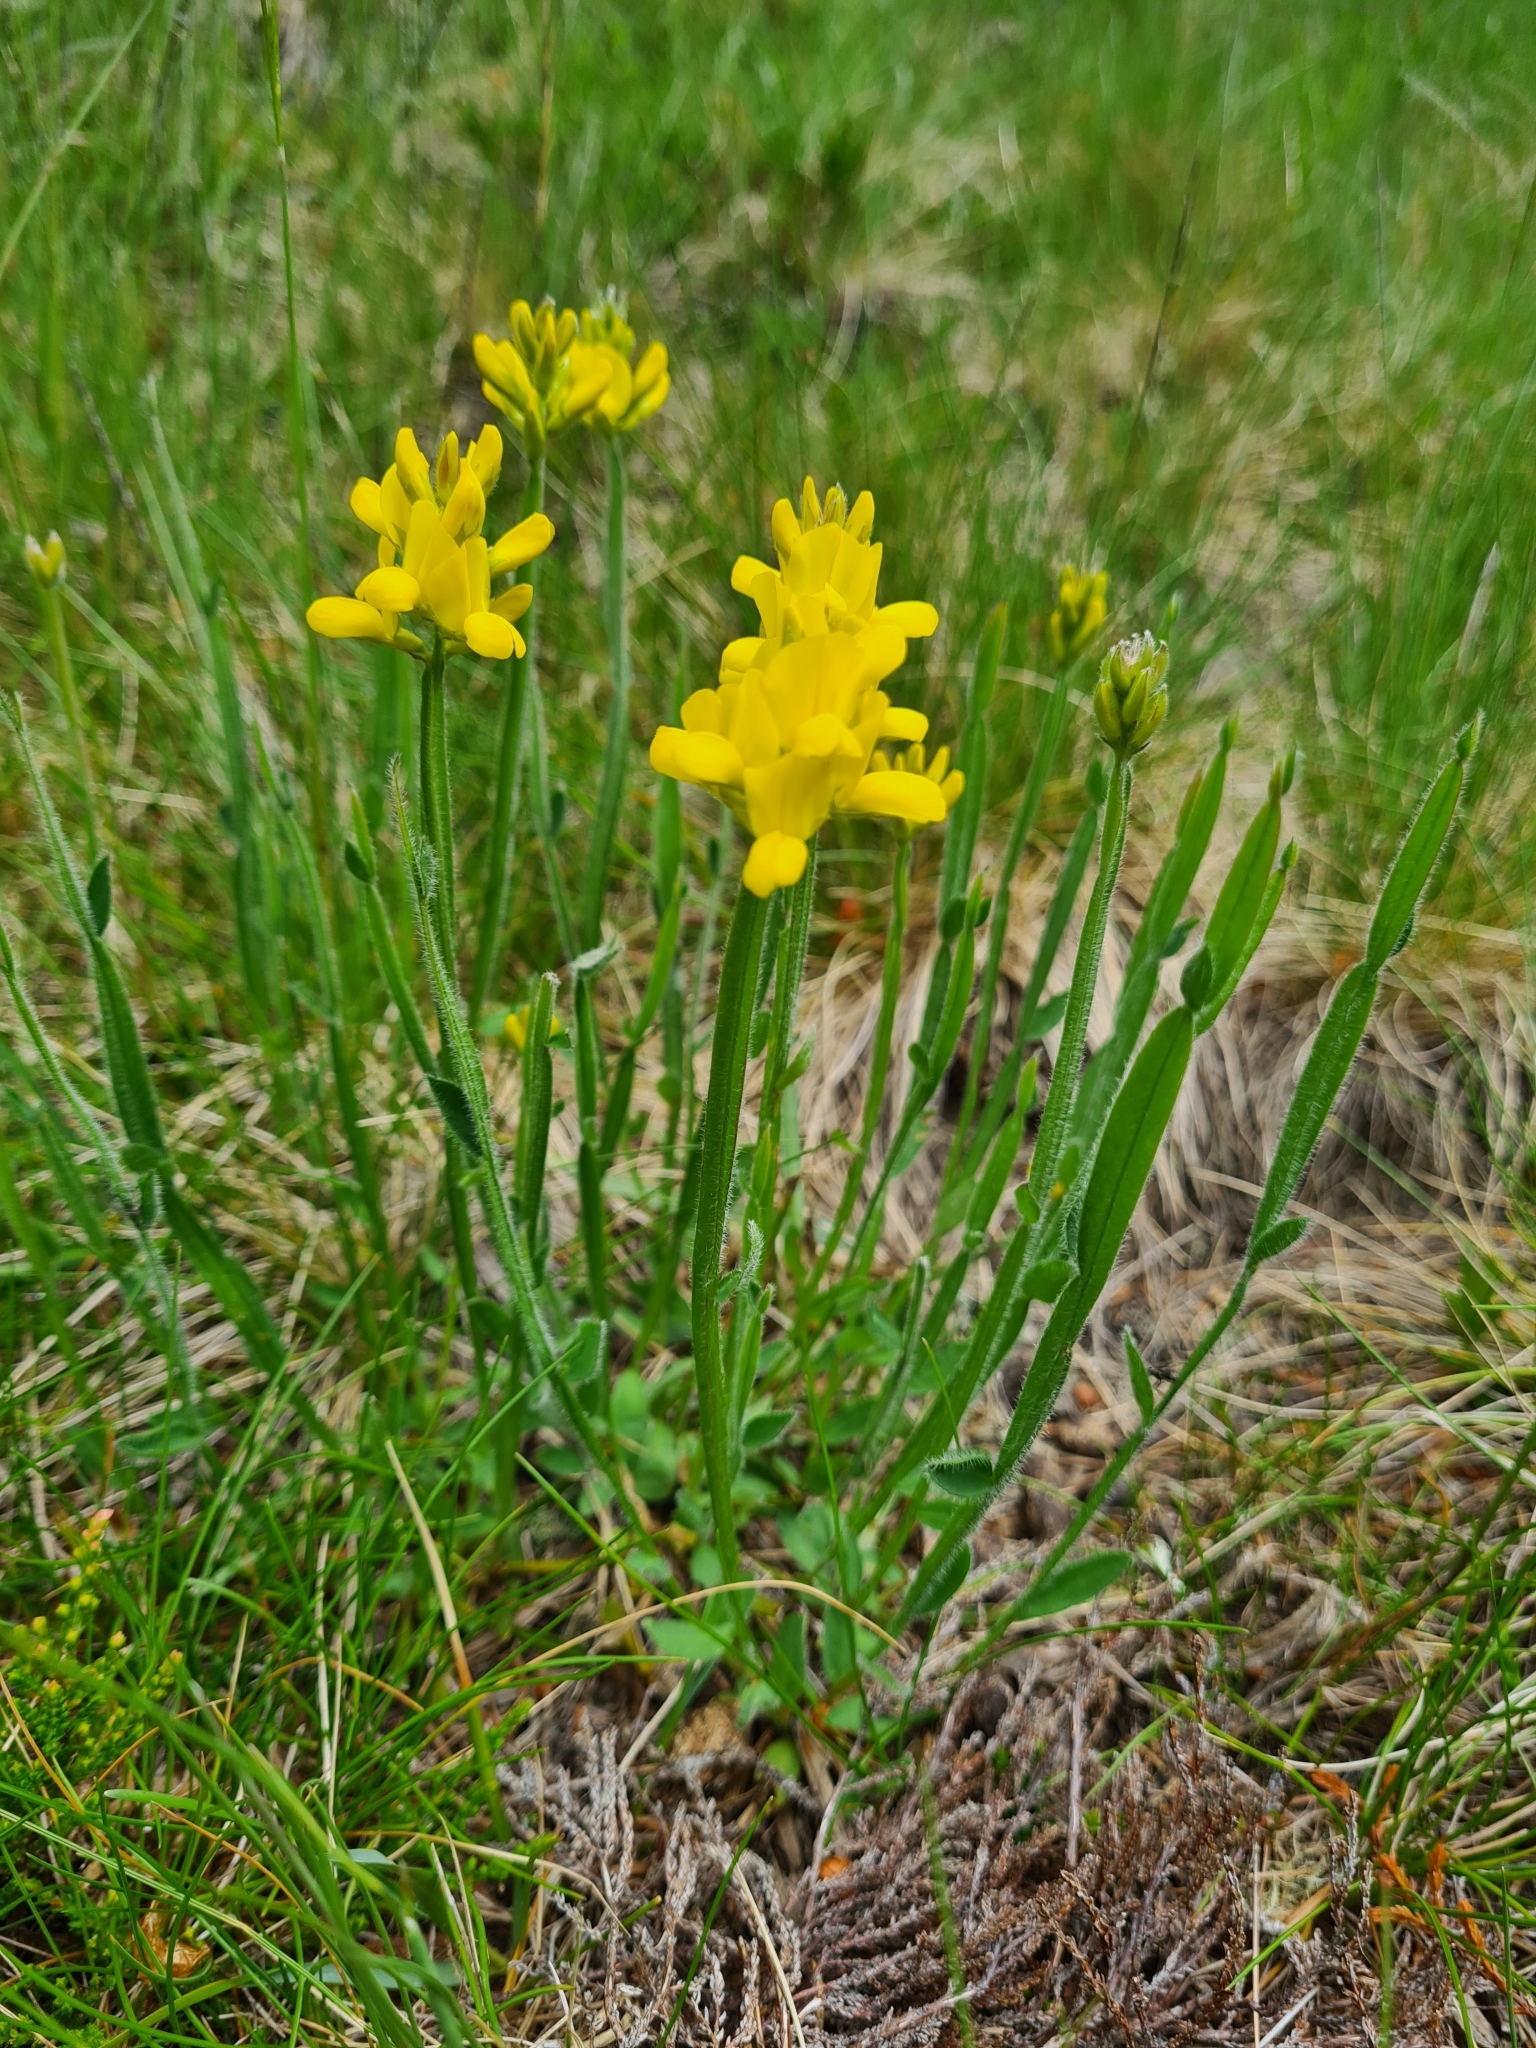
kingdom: Plantae
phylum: Tracheophyta
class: Magnoliopsida
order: Fabales
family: Fabaceae
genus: Genista
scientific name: Genista sagittalis
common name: Winged greenweed
